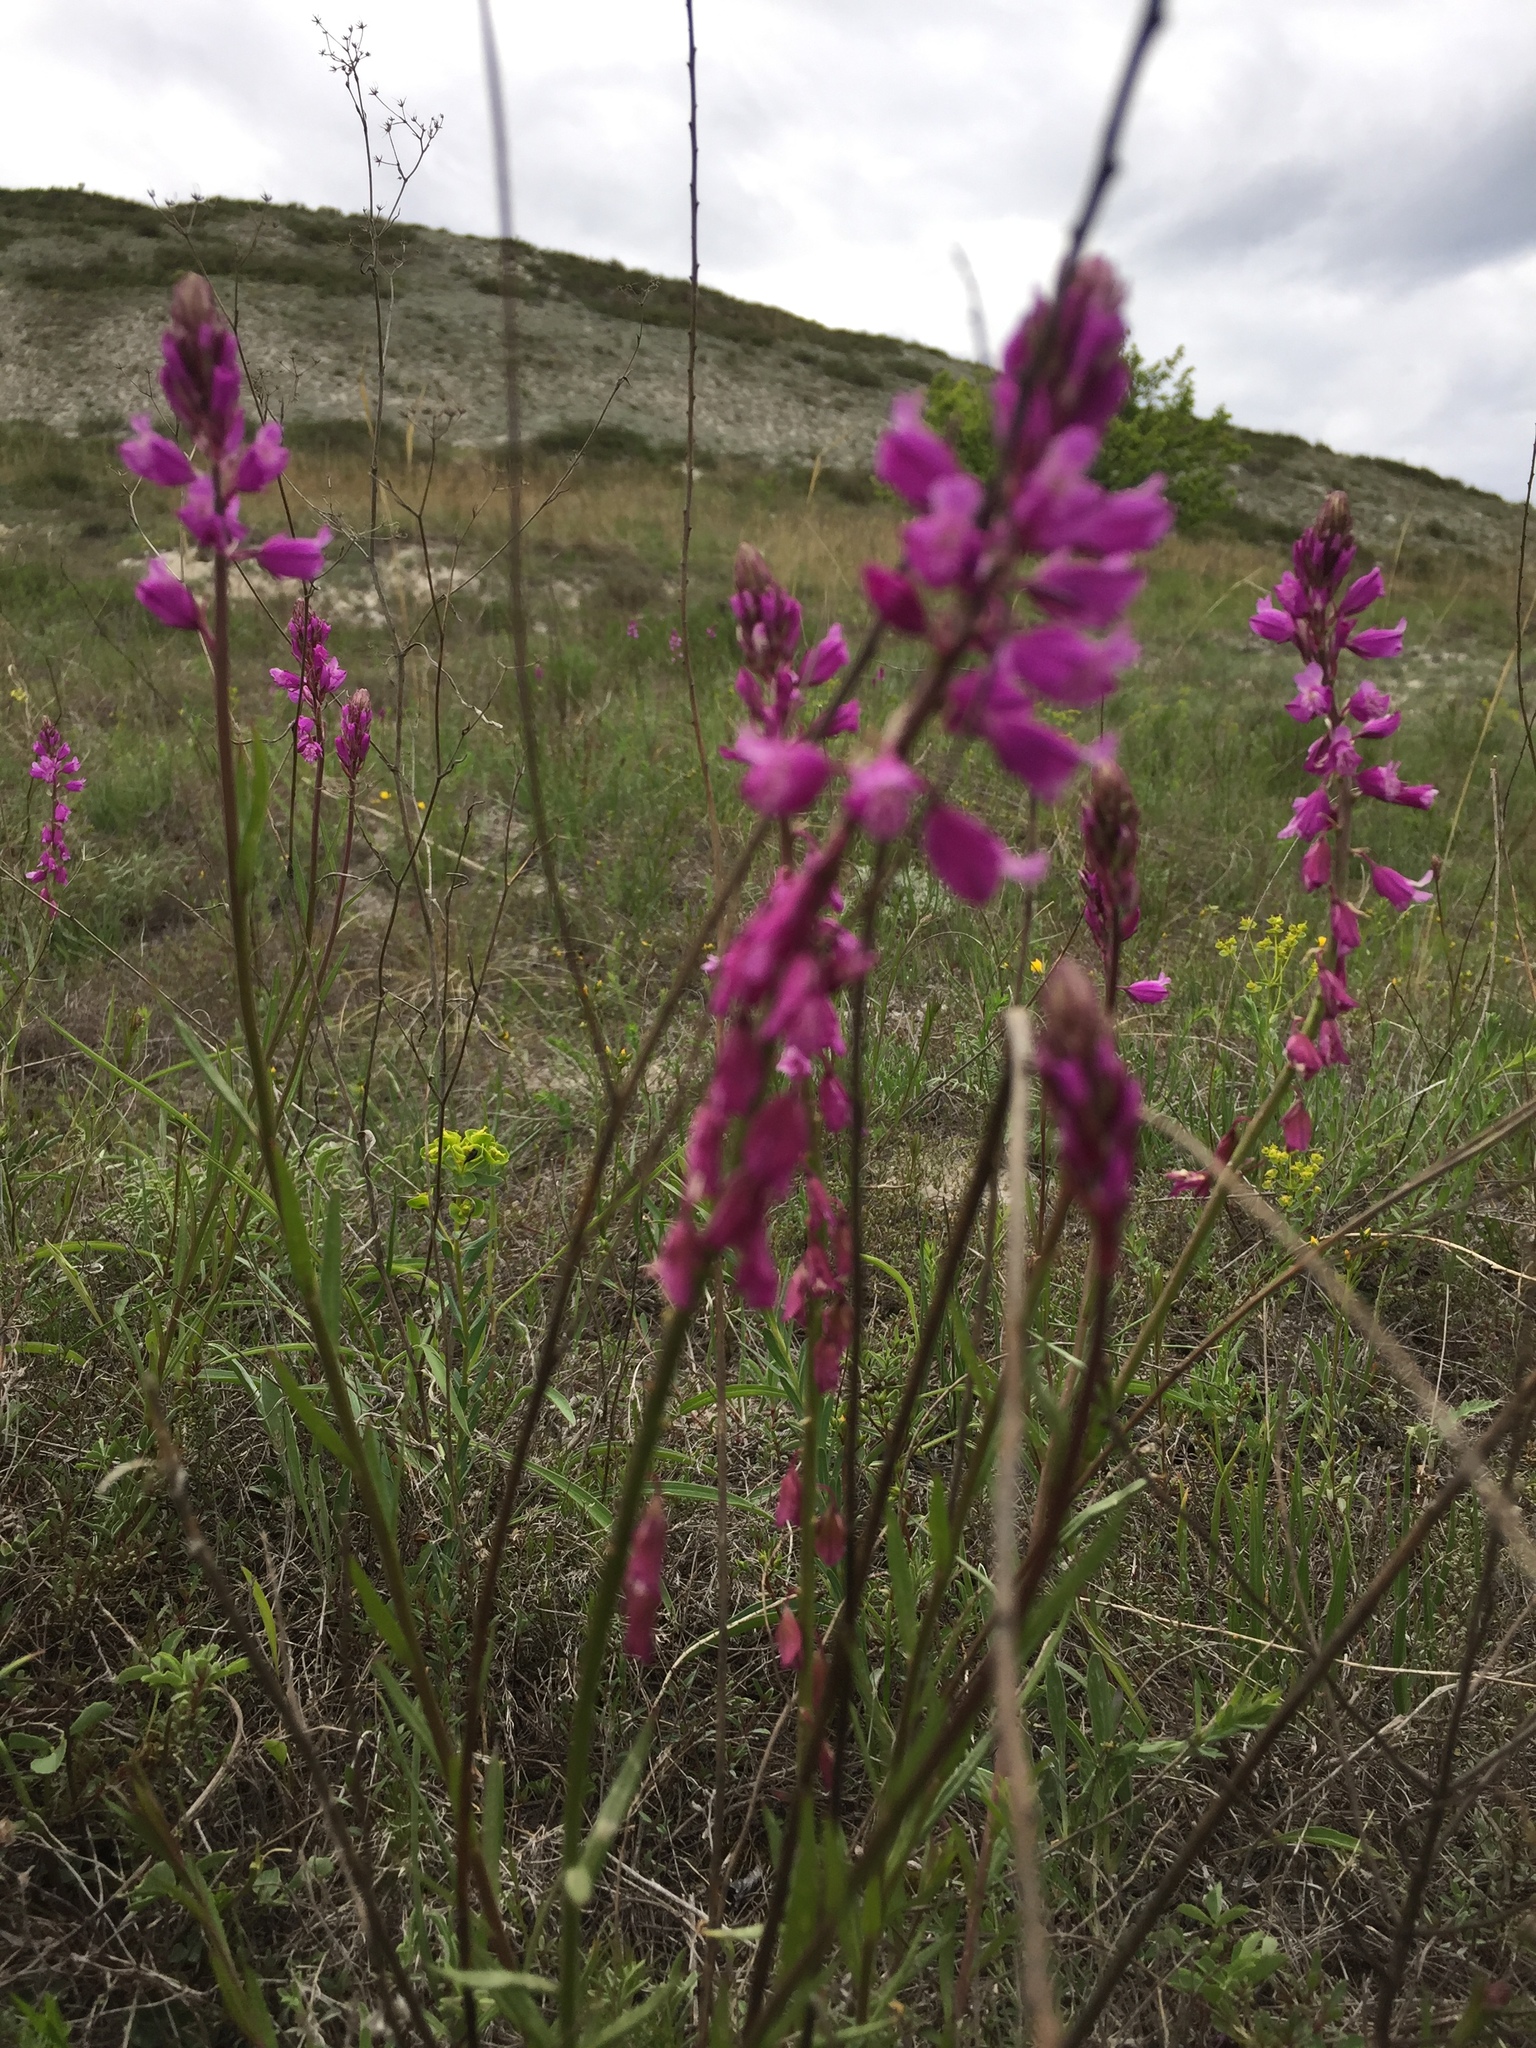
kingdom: Plantae
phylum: Tracheophyta
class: Magnoliopsida
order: Fabales
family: Polygalaceae
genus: Polygala
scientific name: Polygala nicaeensis
